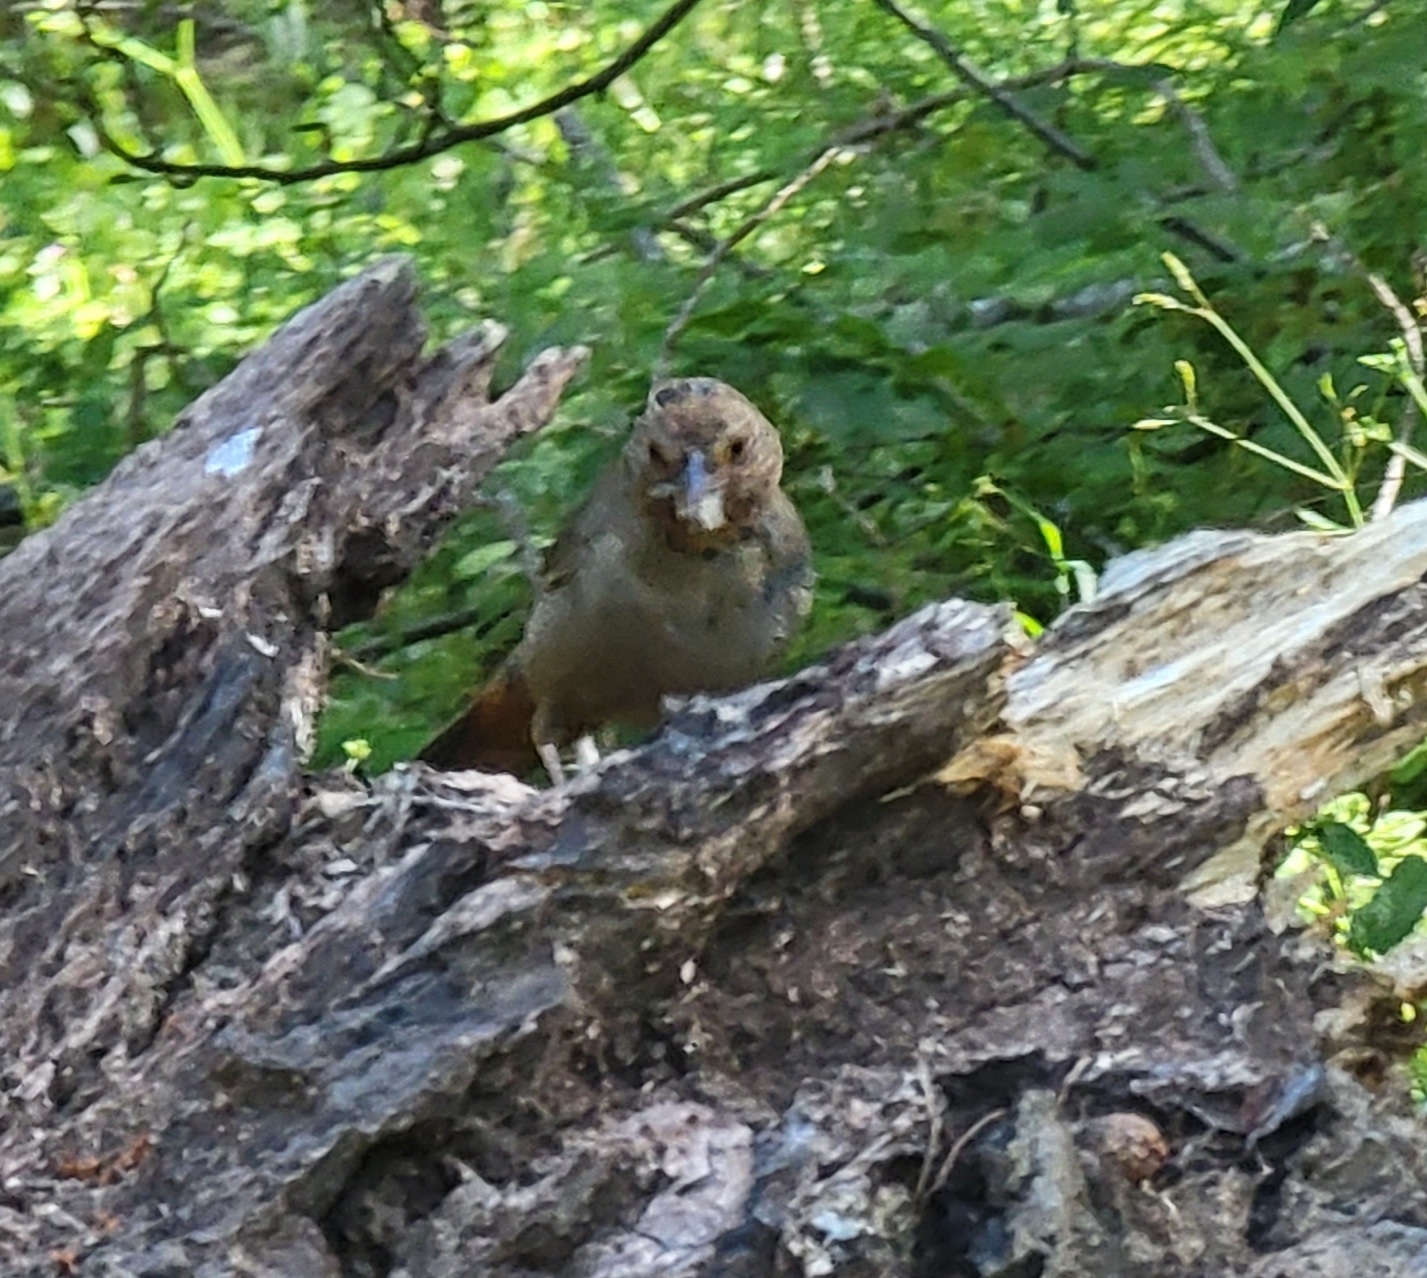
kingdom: Animalia
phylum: Chordata
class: Aves
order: Passeriformes
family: Passerellidae
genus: Melozone
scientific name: Melozone crissalis
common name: California towhee
